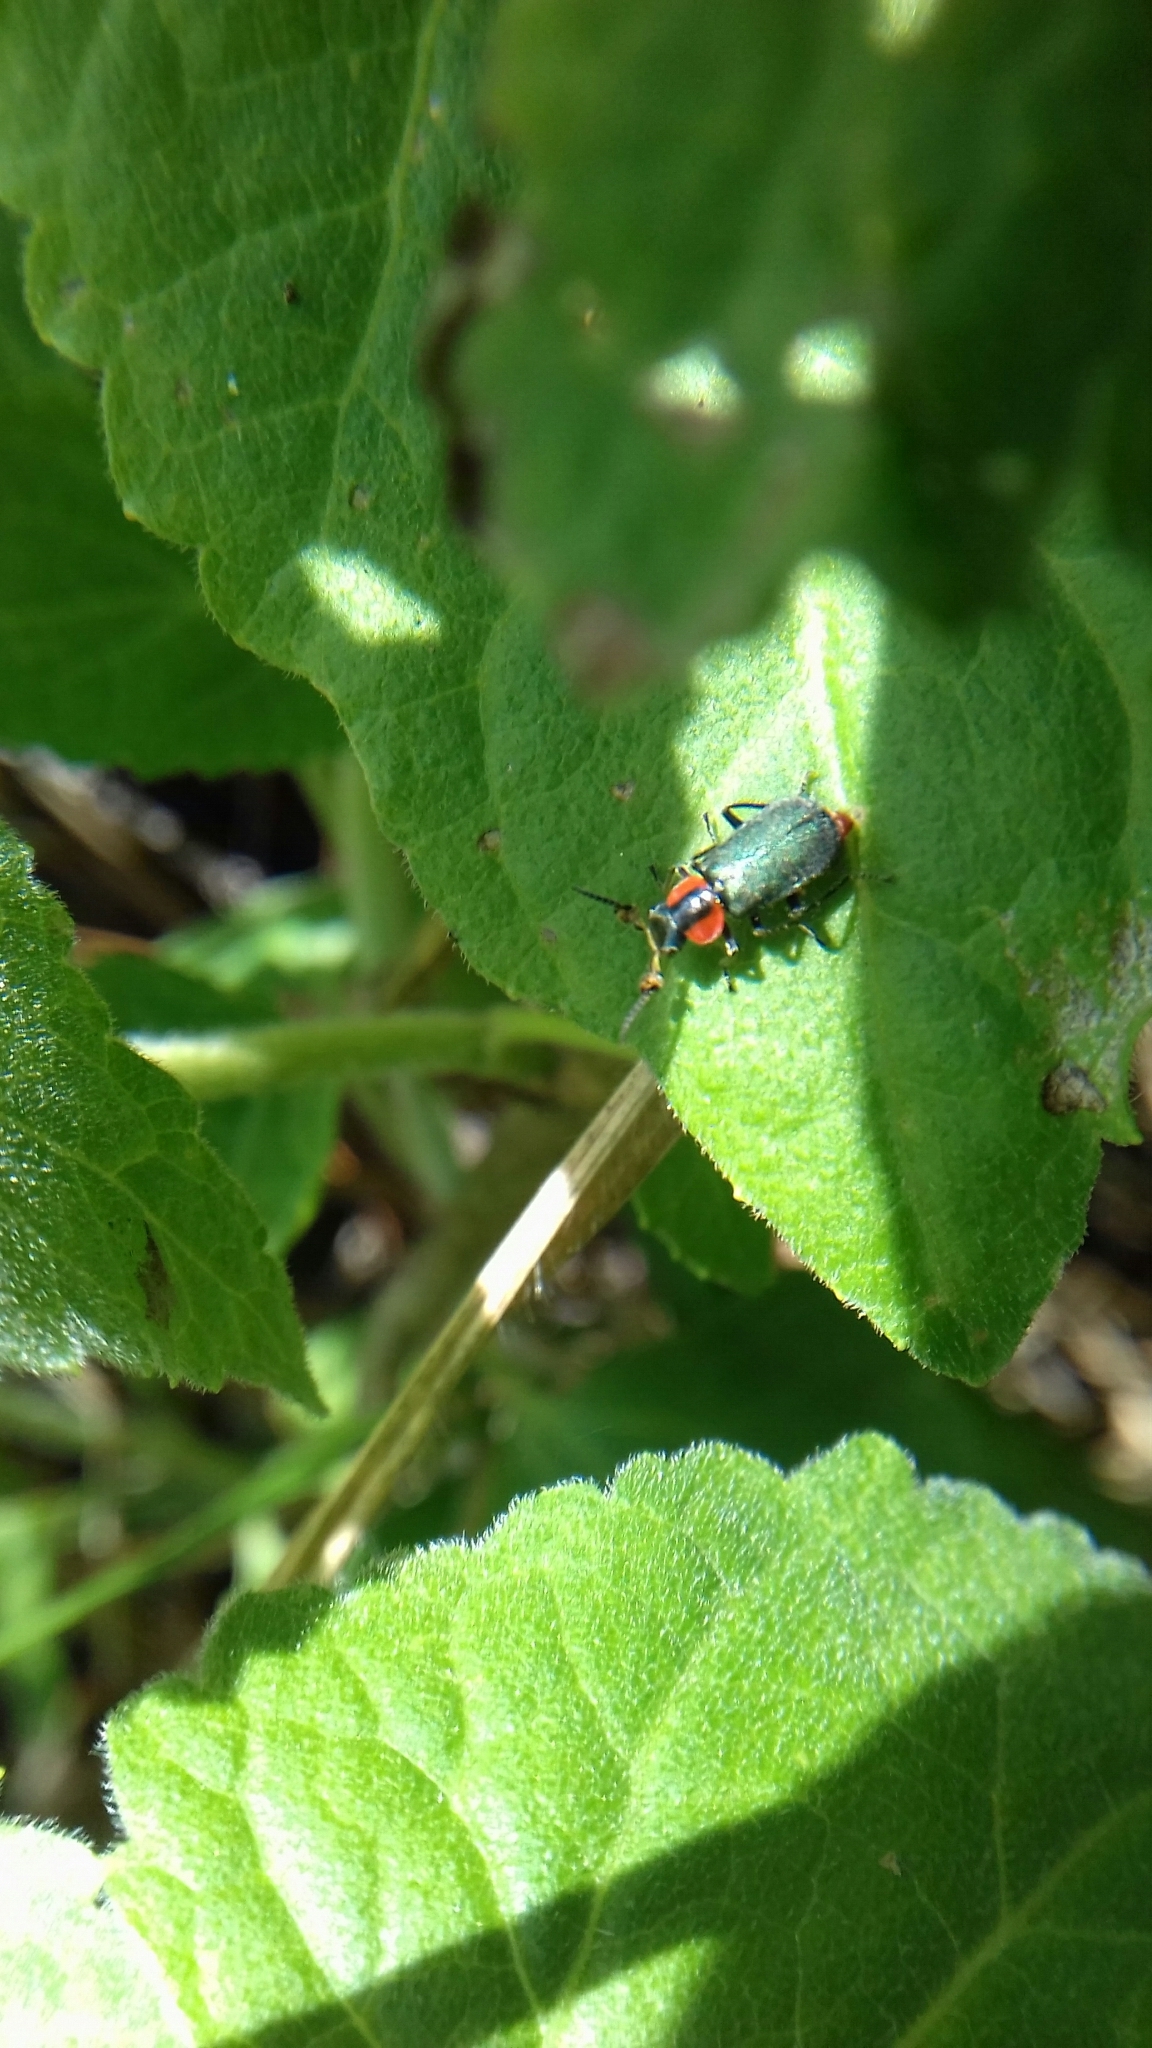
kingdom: Animalia
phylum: Arthropoda
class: Insecta
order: Coleoptera
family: Melyridae
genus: Collops
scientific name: Collops
